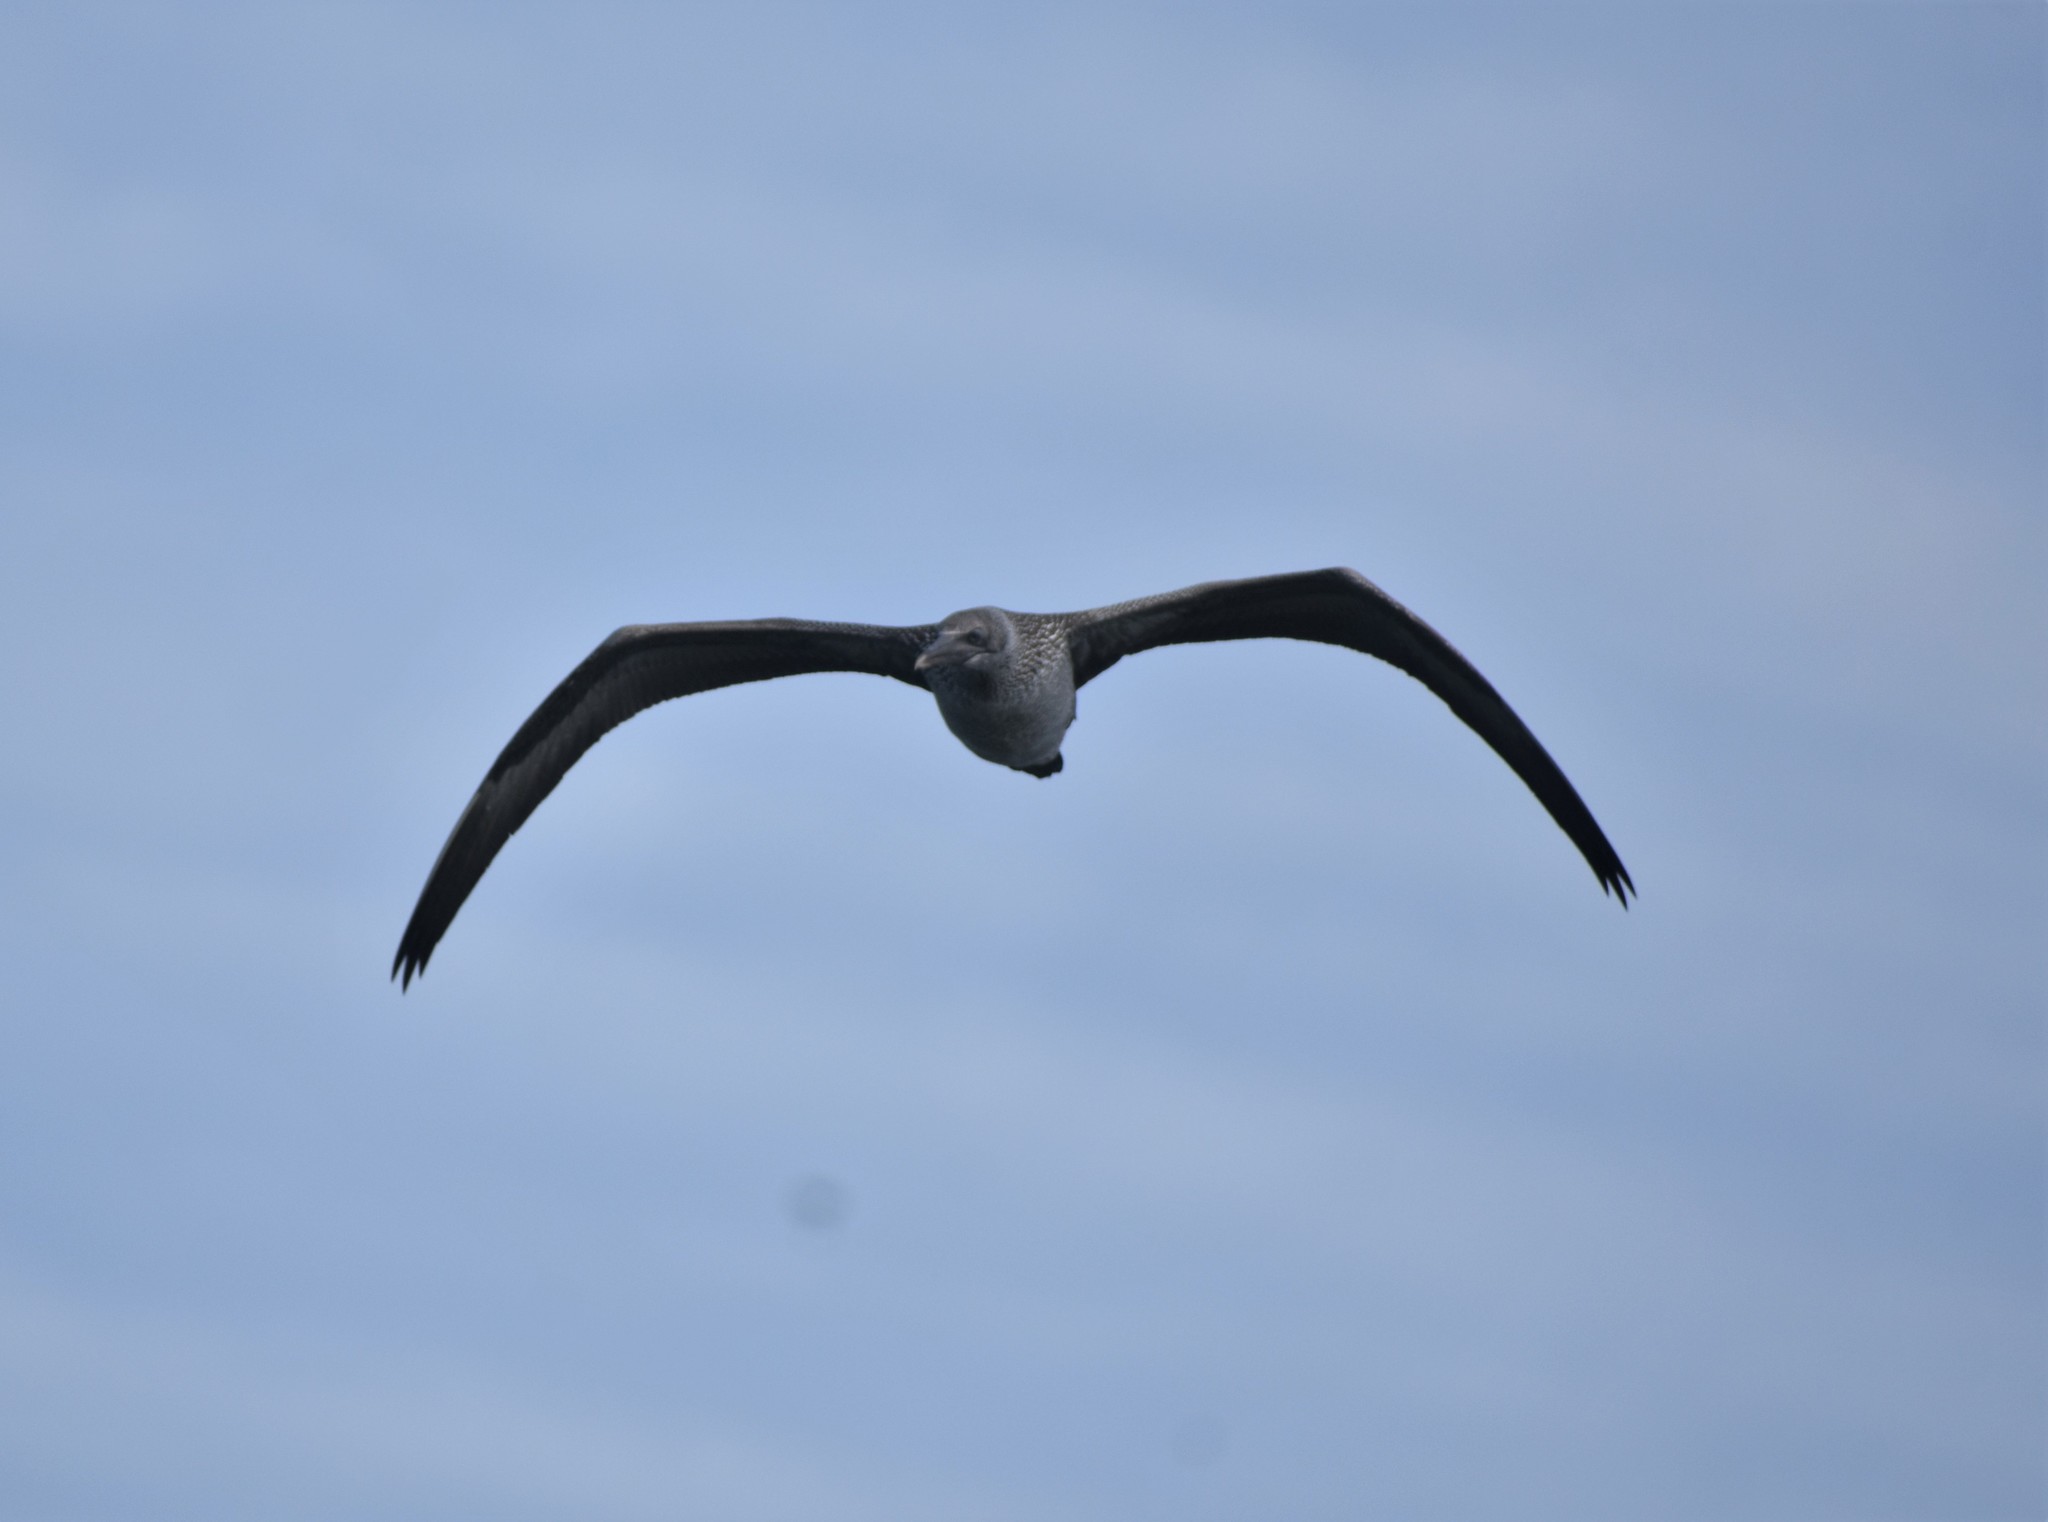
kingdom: Animalia
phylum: Chordata
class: Aves
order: Suliformes
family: Sulidae
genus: Morus
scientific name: Morus capensis
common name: Cape gannet
